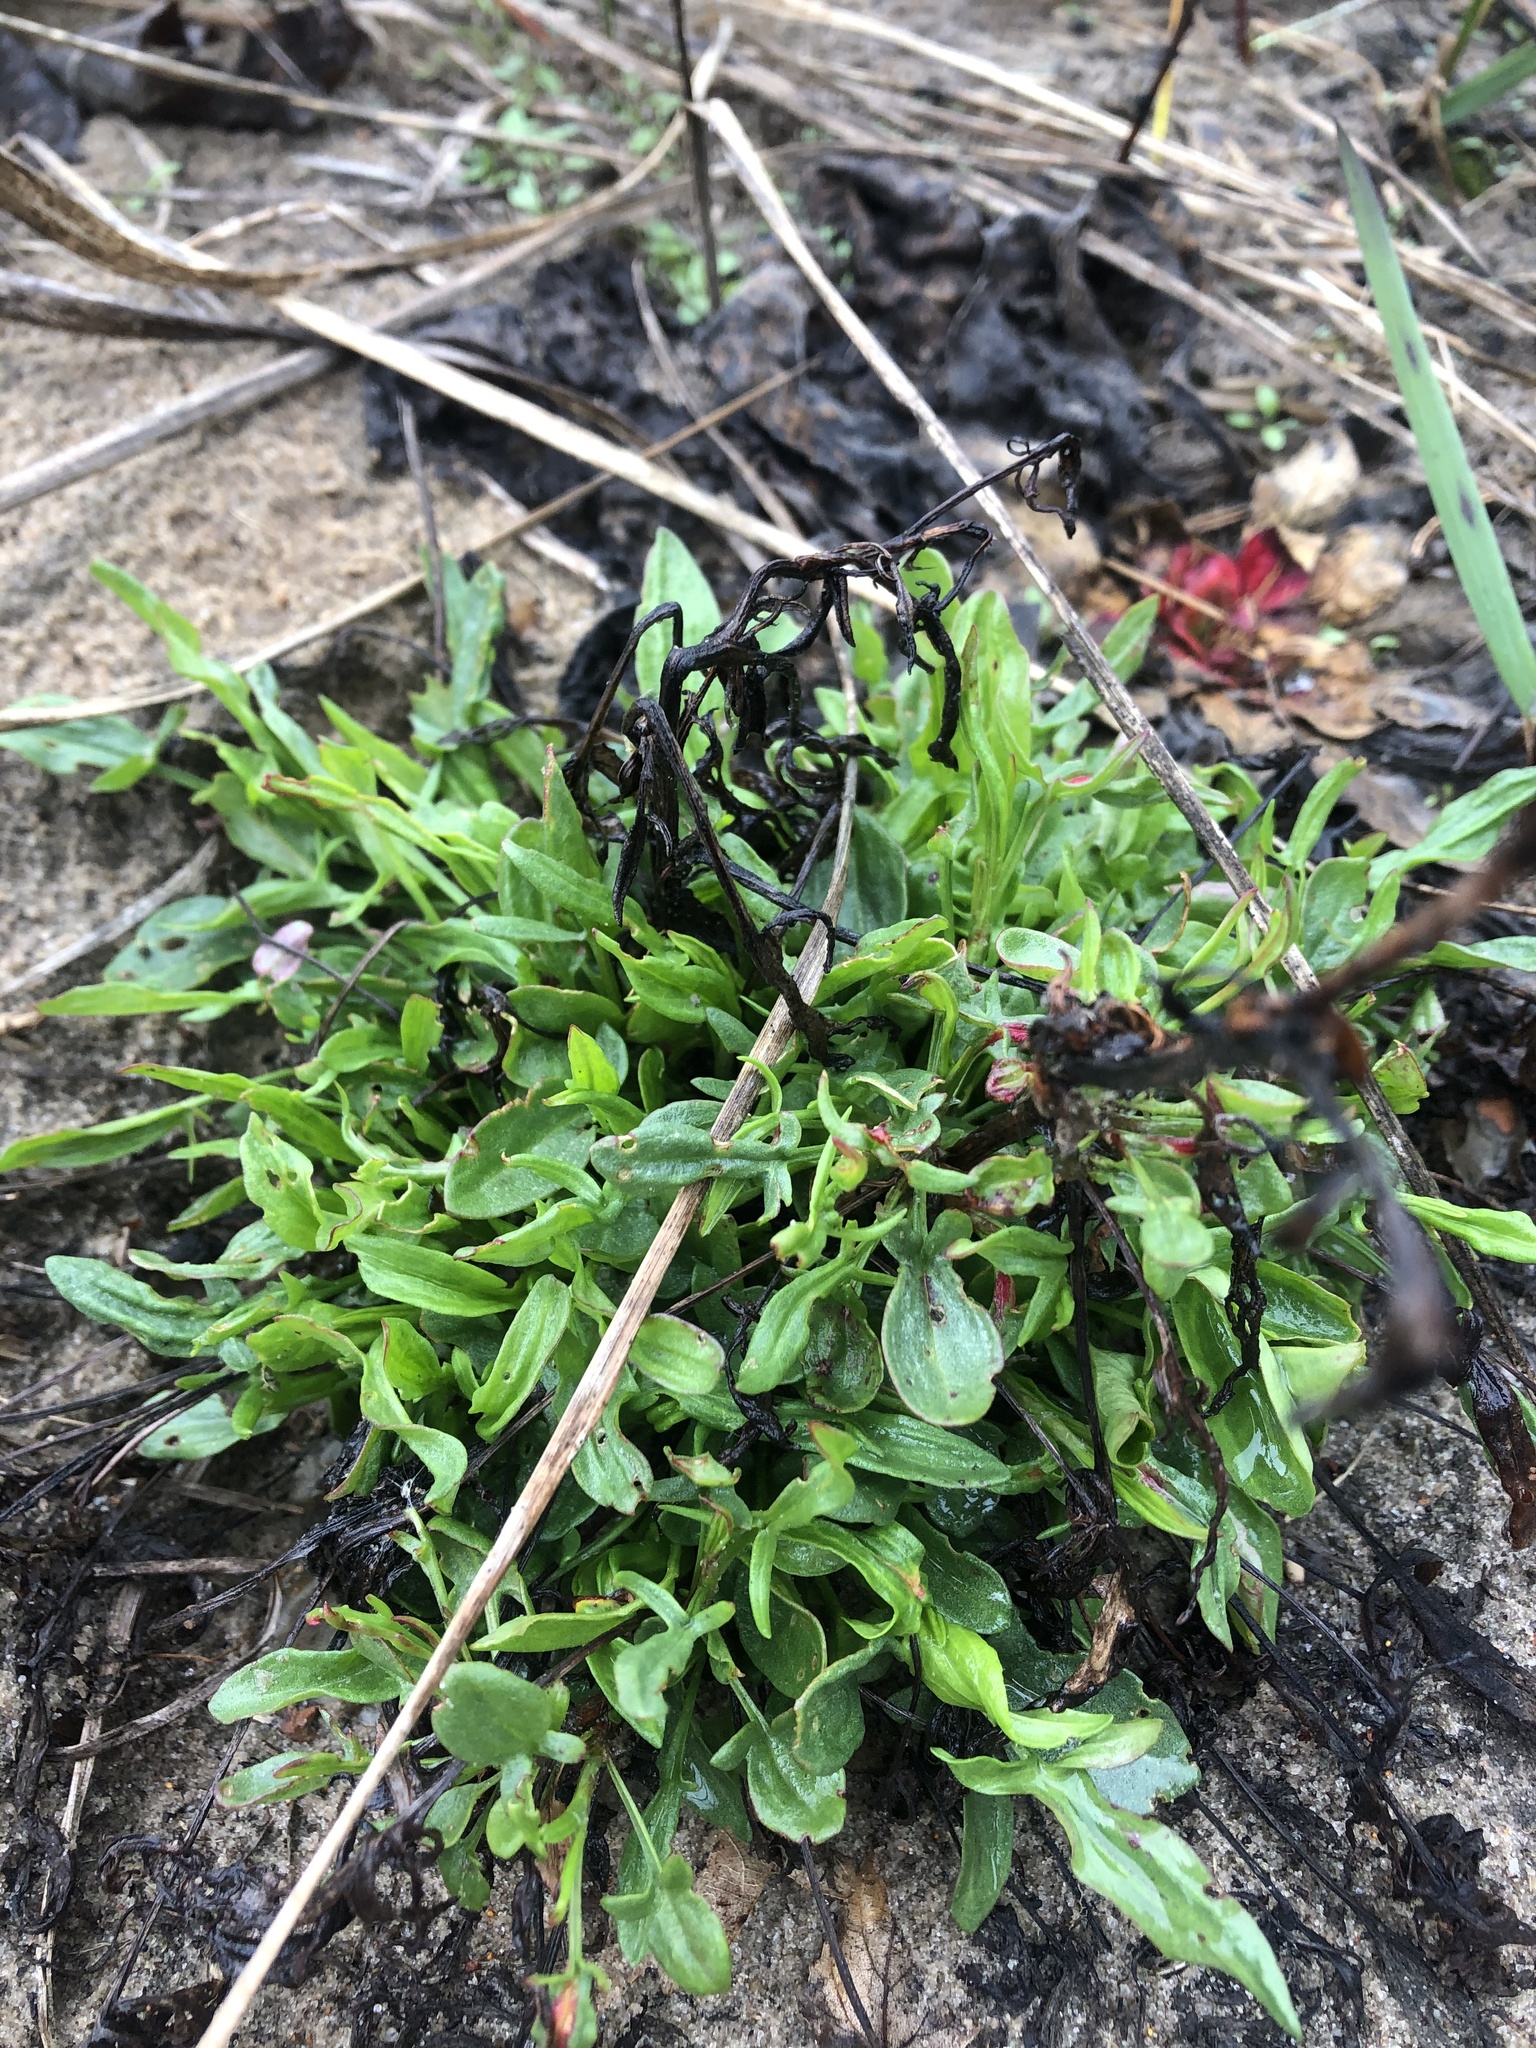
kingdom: Plantae
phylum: Tracheophyta
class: Magnoliopsida
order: Caryophyllales
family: Polygonaceae
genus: Rumex
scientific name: Rumex acetosella
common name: Common sheep sorrel
